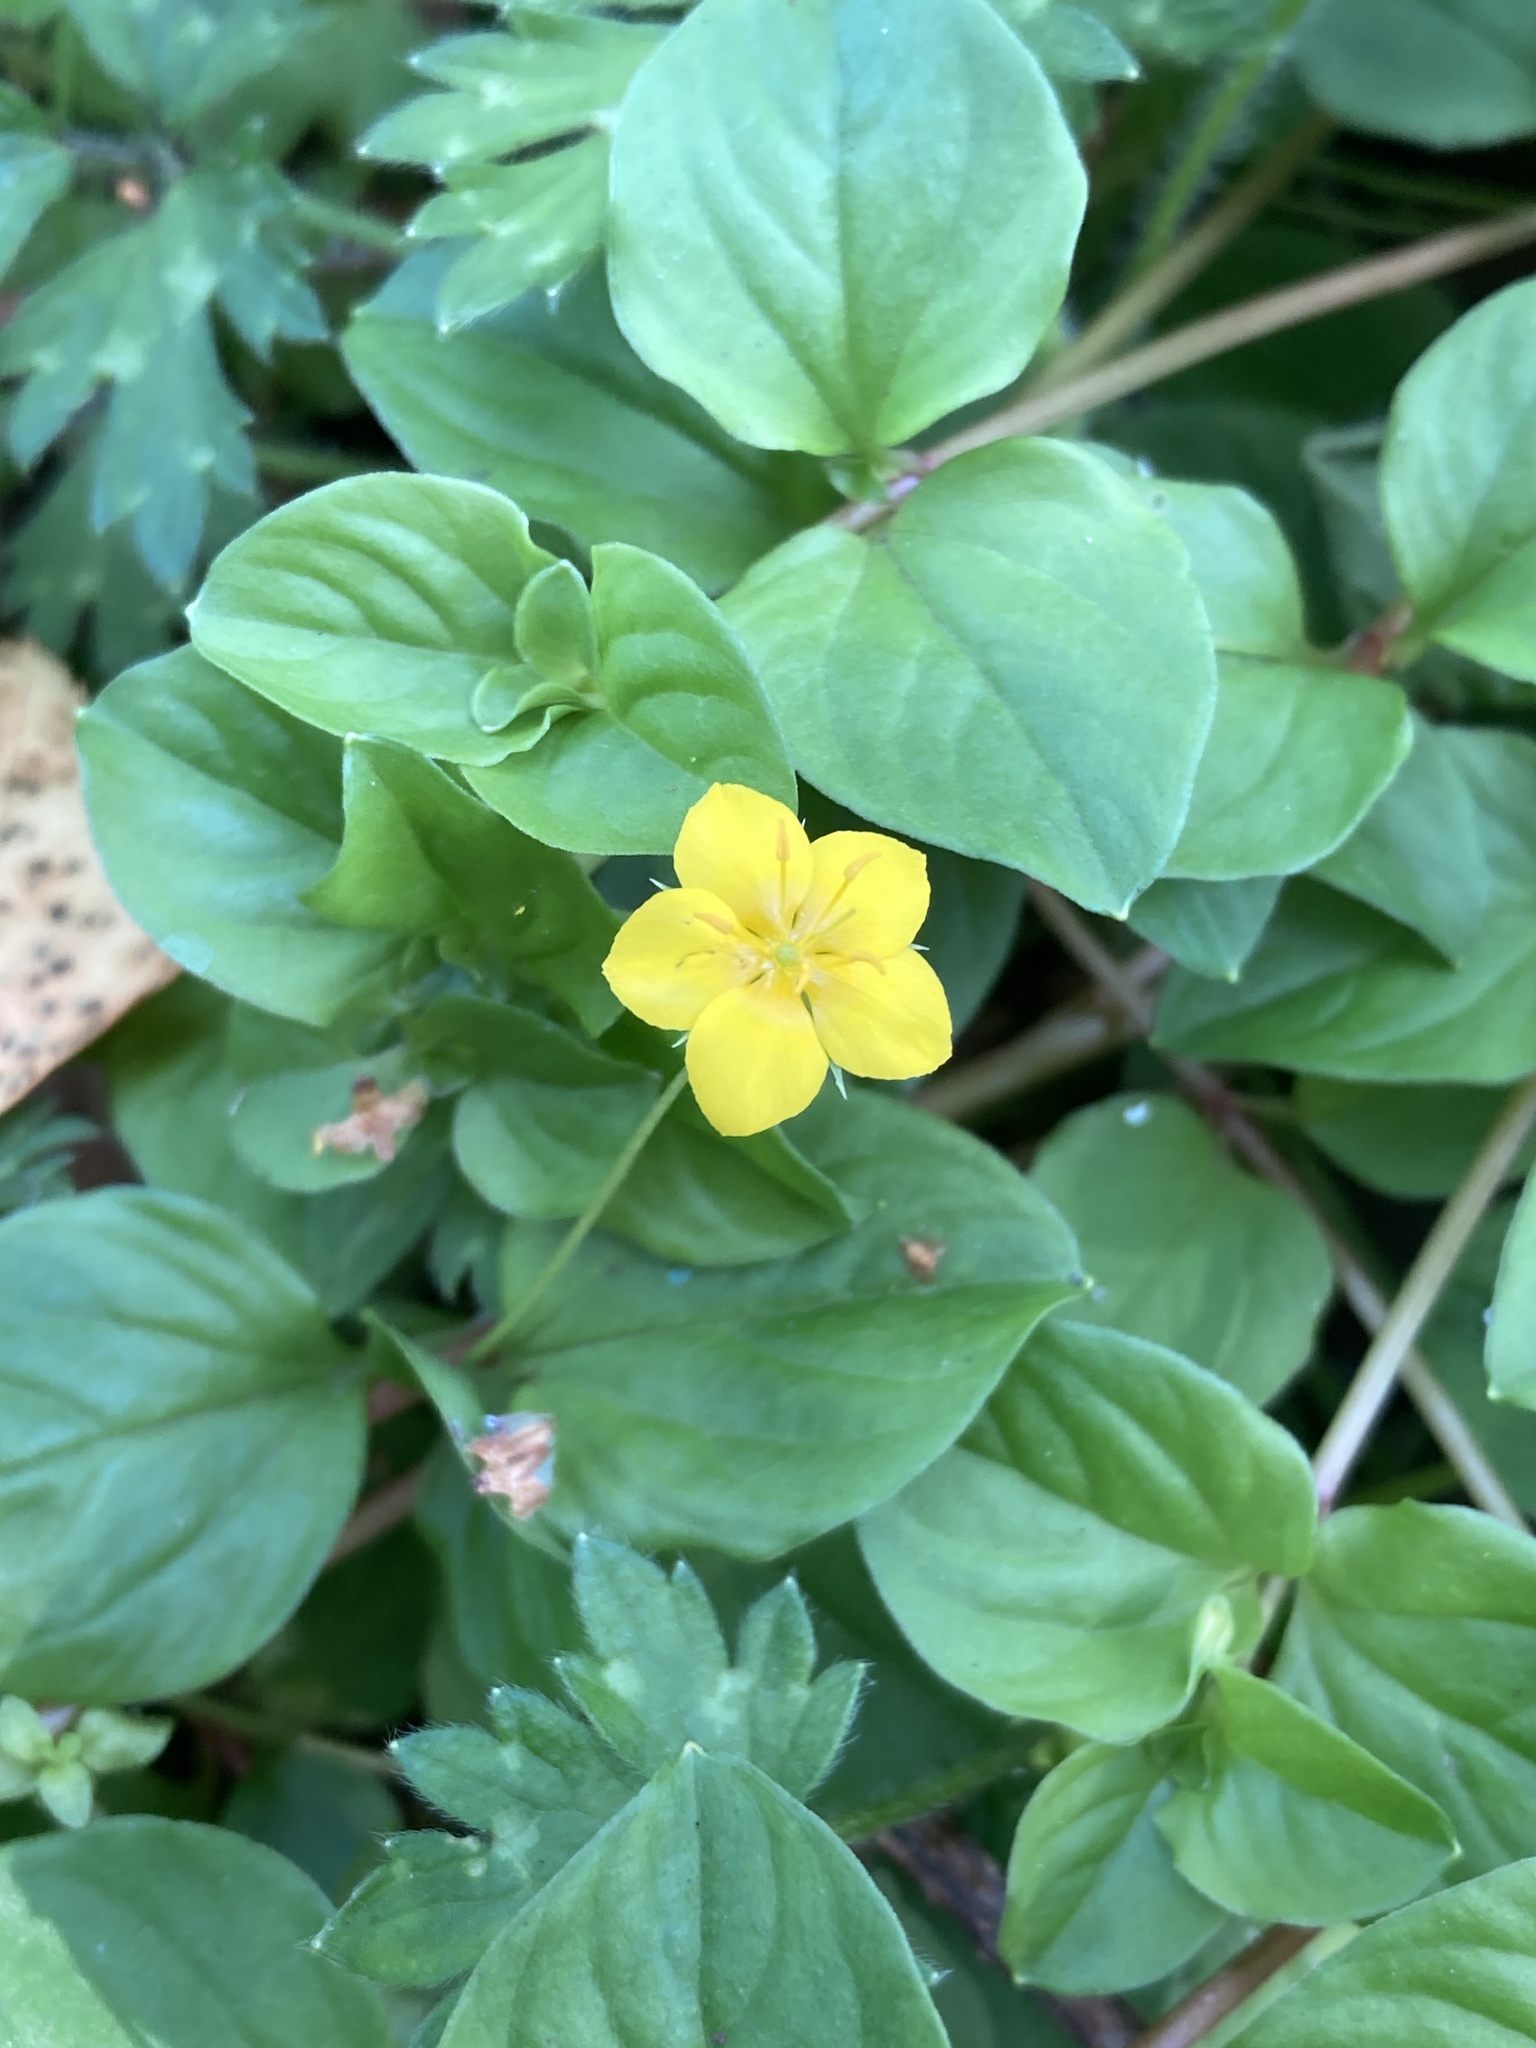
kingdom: Plantae
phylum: Tracheophyta
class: Magnoliopsida
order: Ericales
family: Primulaceae
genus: Lysimachia
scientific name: Lysimachia nemorum
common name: Yellow pimpernel
